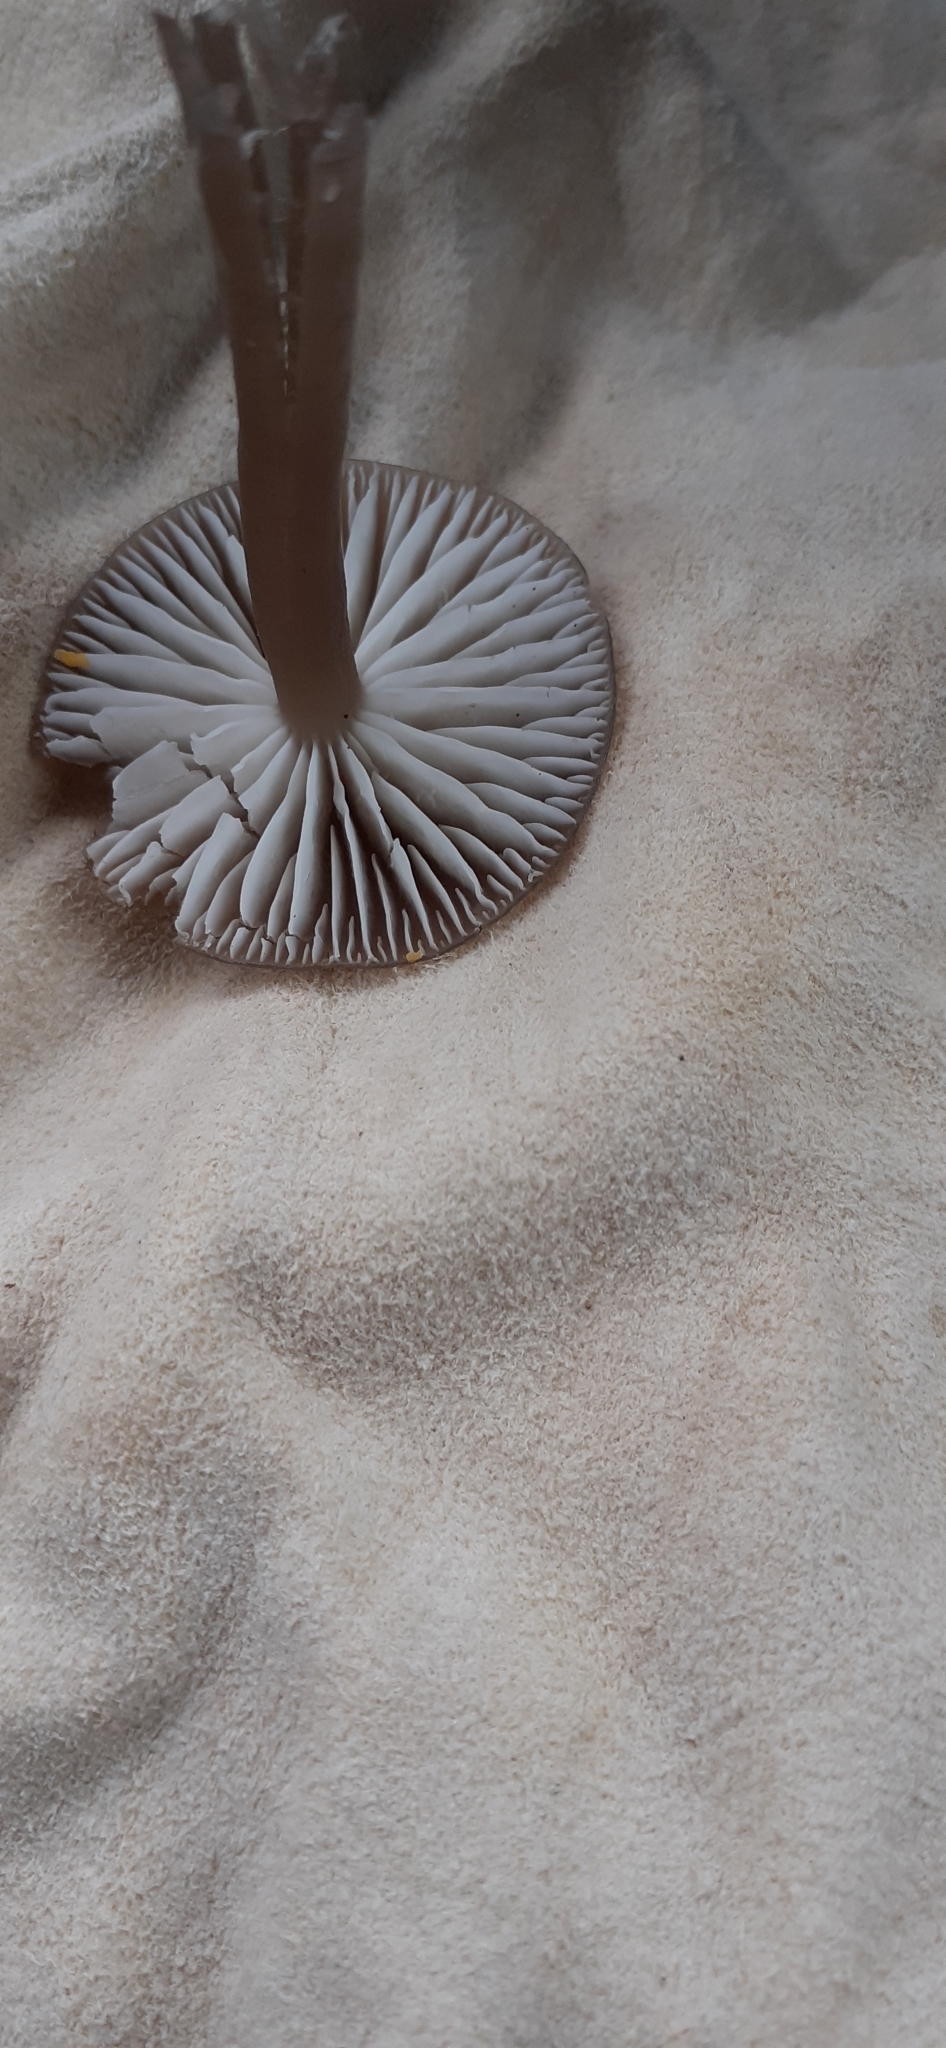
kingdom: Fungi
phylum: Basidiomycota
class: Agaricomycetes
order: Agaricales
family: Hygrophoraceae
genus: Gliophorus
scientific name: Gliophorus irrigatus
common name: Slimy waxcap
